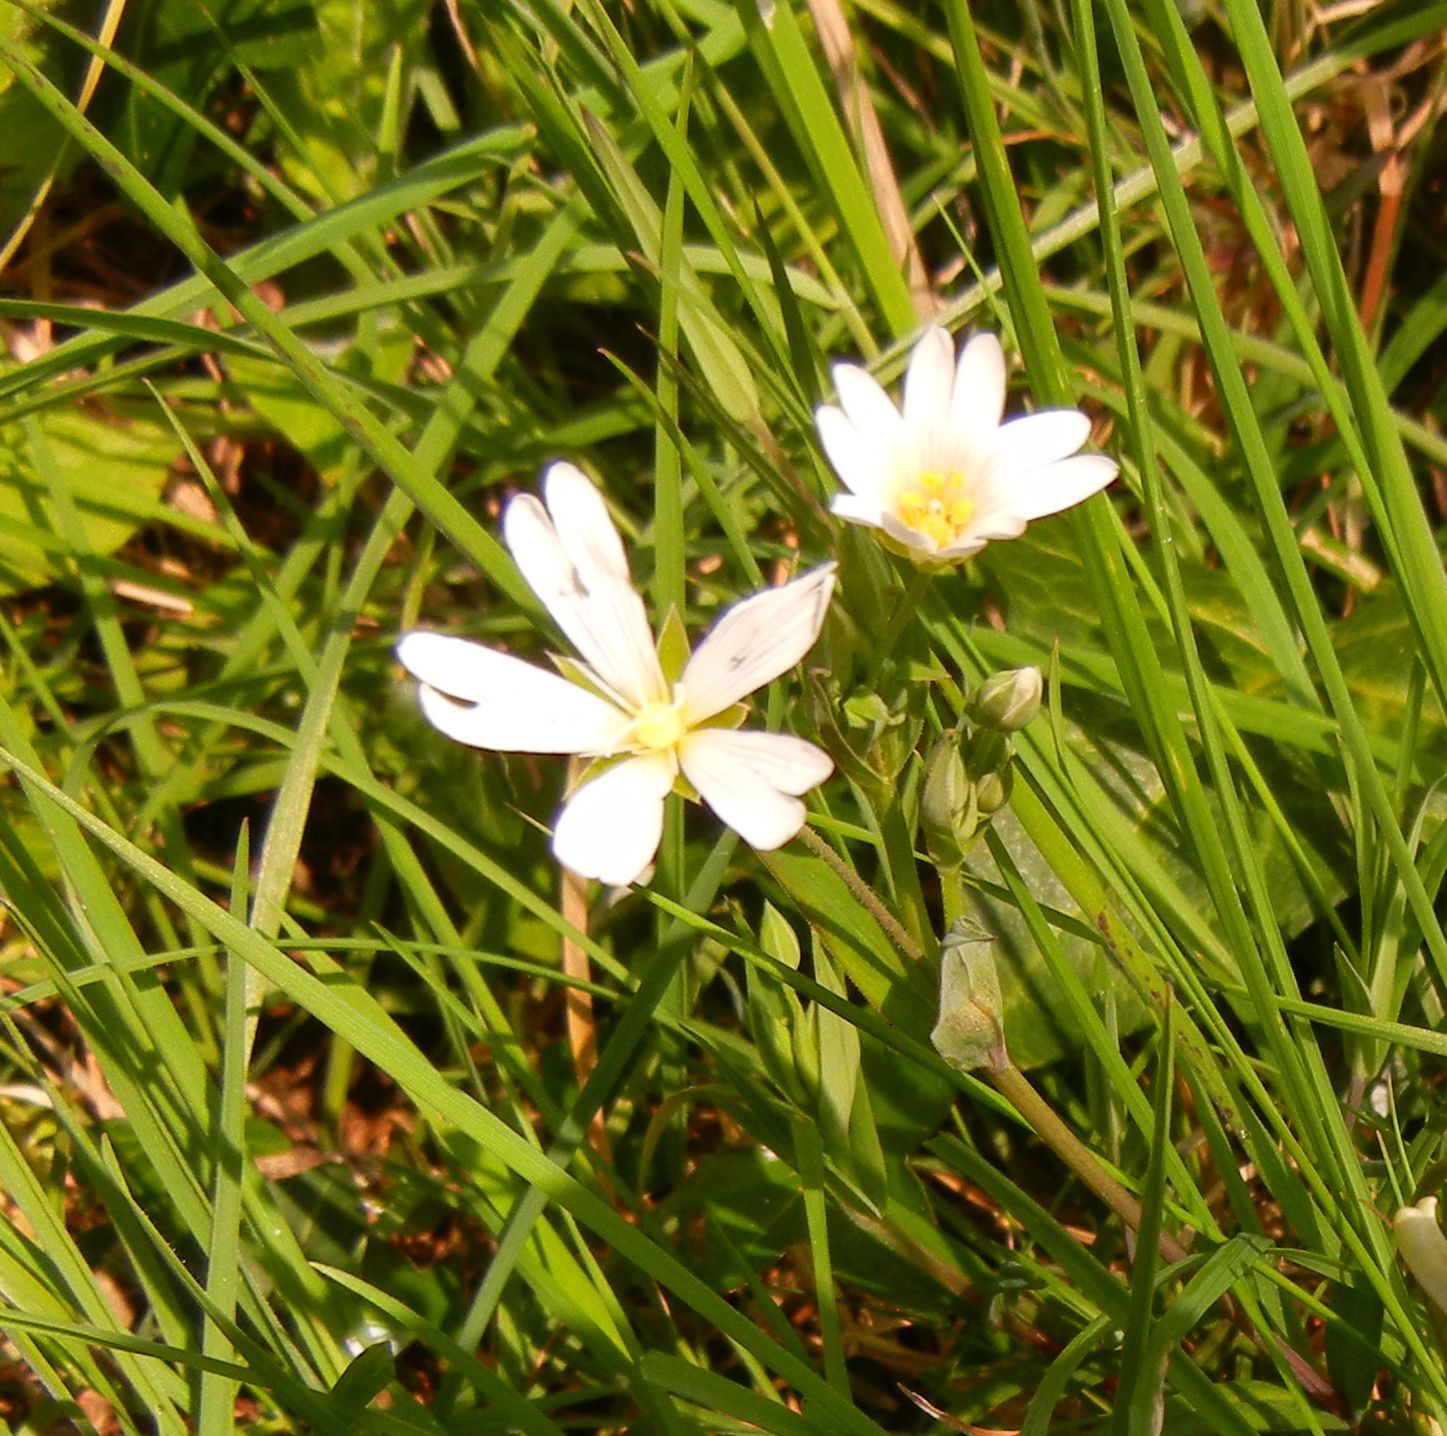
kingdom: Plantae
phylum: Tracheophyta
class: Magnoliopsida
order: Caryophyllales
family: Caryophyllaceae
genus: Rabelera
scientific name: Rabelera holostea
